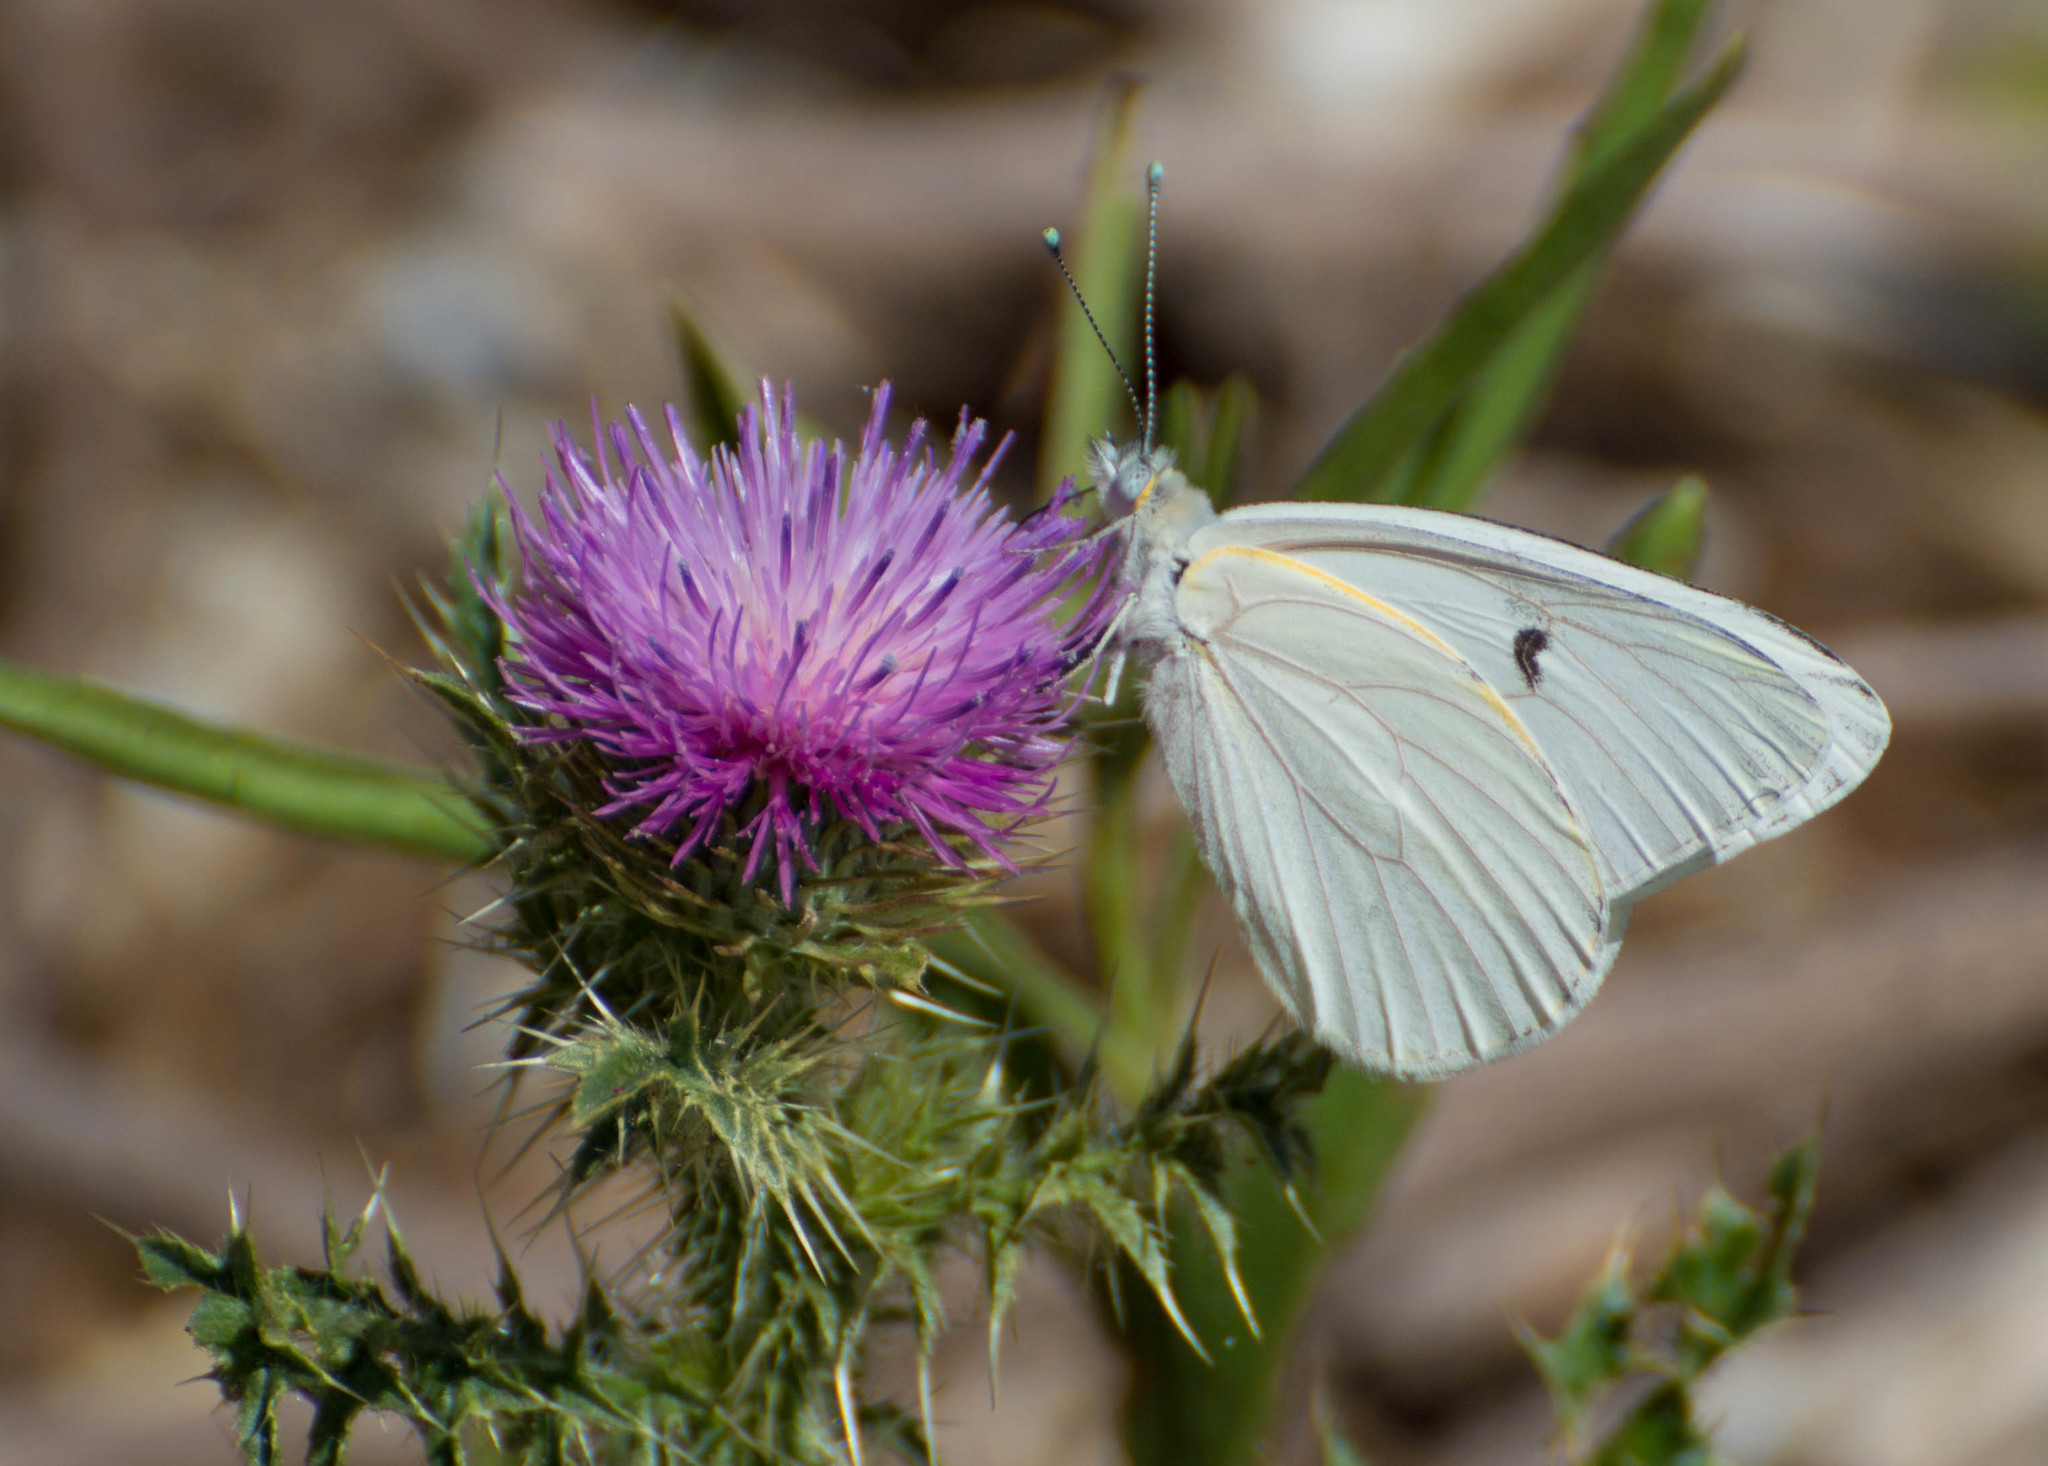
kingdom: Animalia
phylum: Arthropoda
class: Insecta
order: Lepidoptera
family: Pieridae
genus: Tatochila
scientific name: Tatochila mercedis
